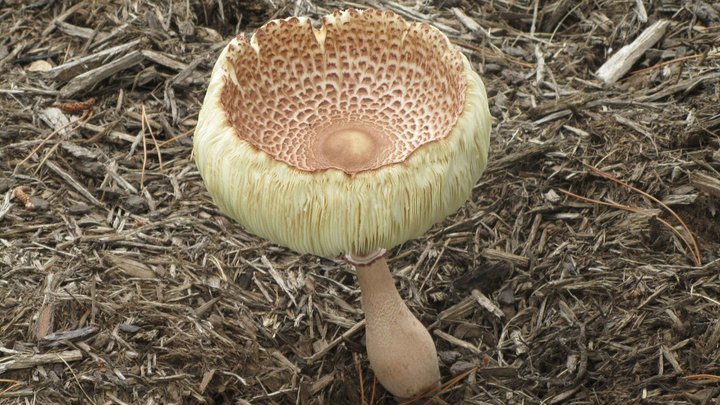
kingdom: Fungi
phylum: Basidiomycota
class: Agaricomycetes
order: Agaricales
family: Agaricaceae
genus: Leucoagaricus
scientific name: Leucoagaricus americanus
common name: Reddening lepiota
